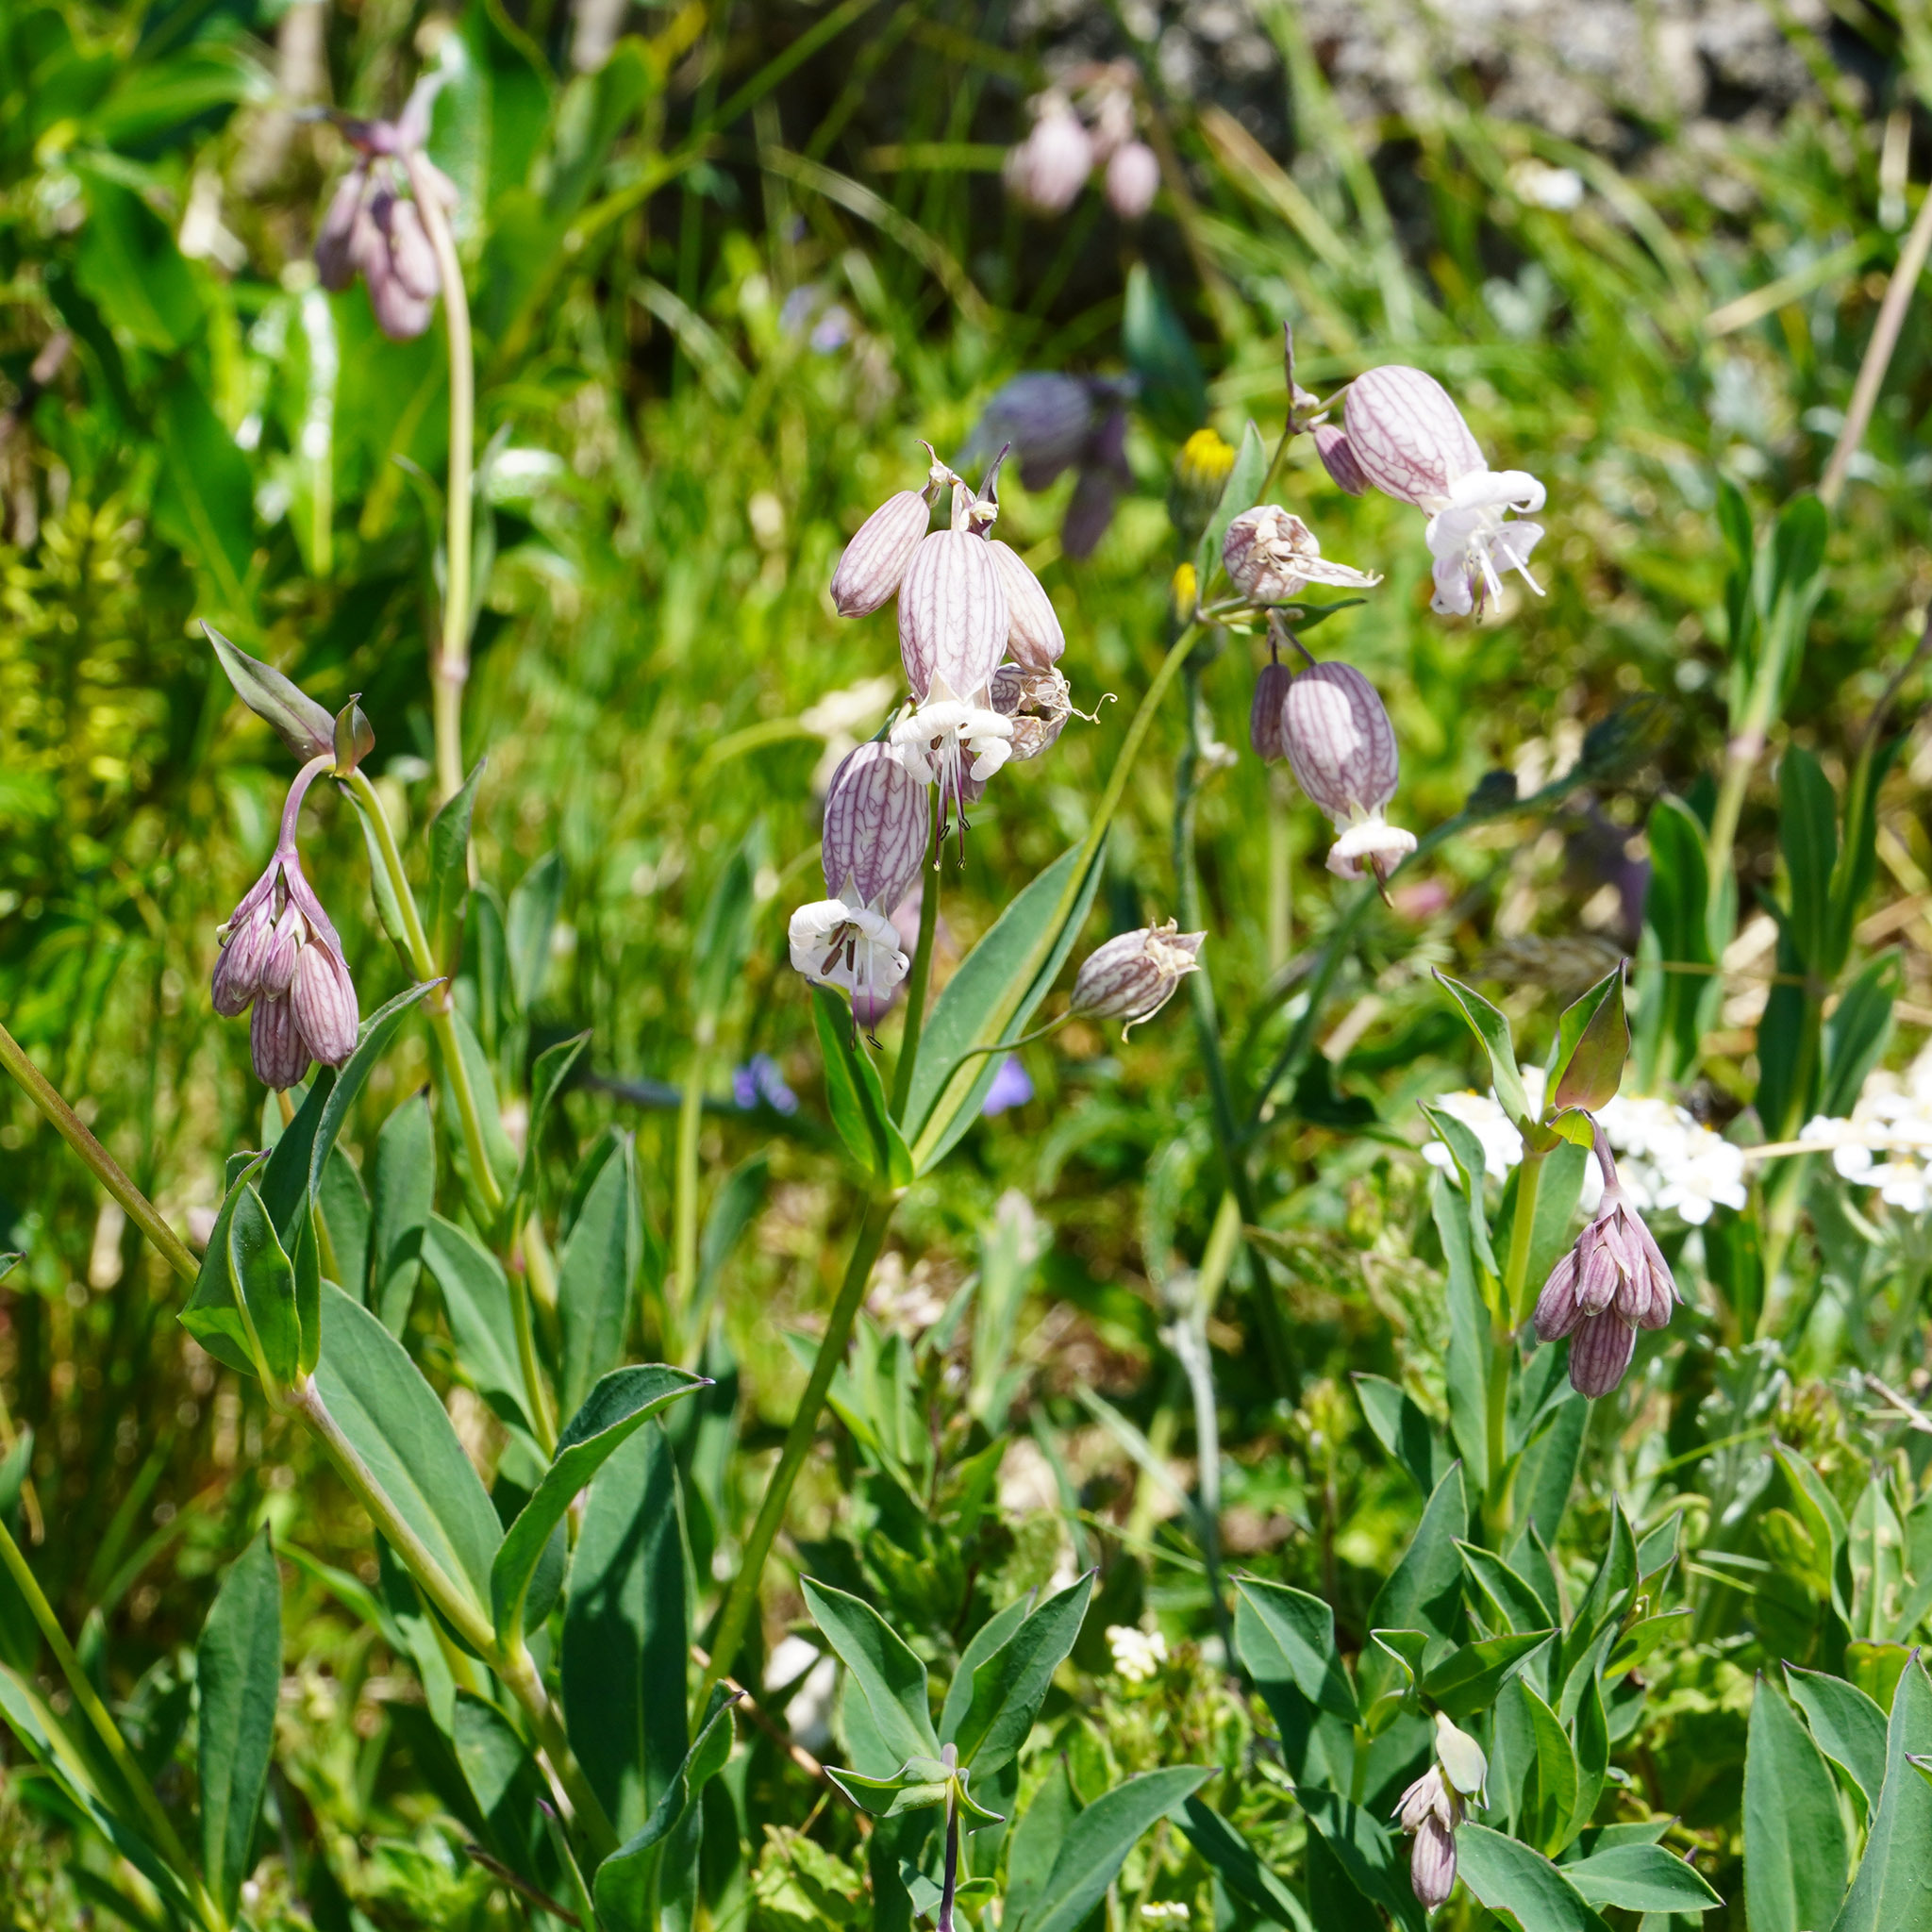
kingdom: Plantae
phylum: Tracheophyta
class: Magnoliopsida
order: Caryophyllales
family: Caryophyllaceae
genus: Silene
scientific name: Silene vulgaris
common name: Bladder campion
